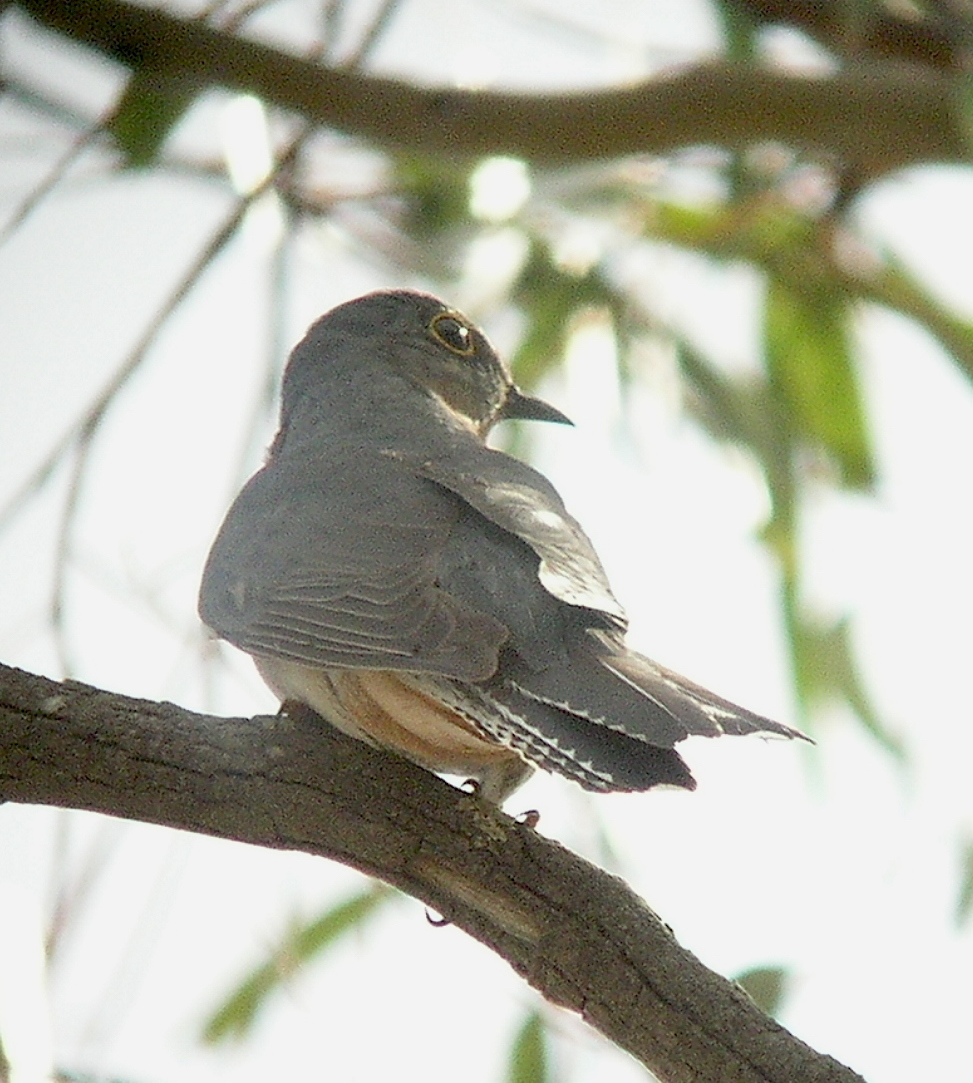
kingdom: Animalia
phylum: Chordata
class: Aves
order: Cuculiformes
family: Cuculidae
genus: Cacomantis
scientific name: Cacomantis flabelliformis
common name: Fan-tailed cuckoo
